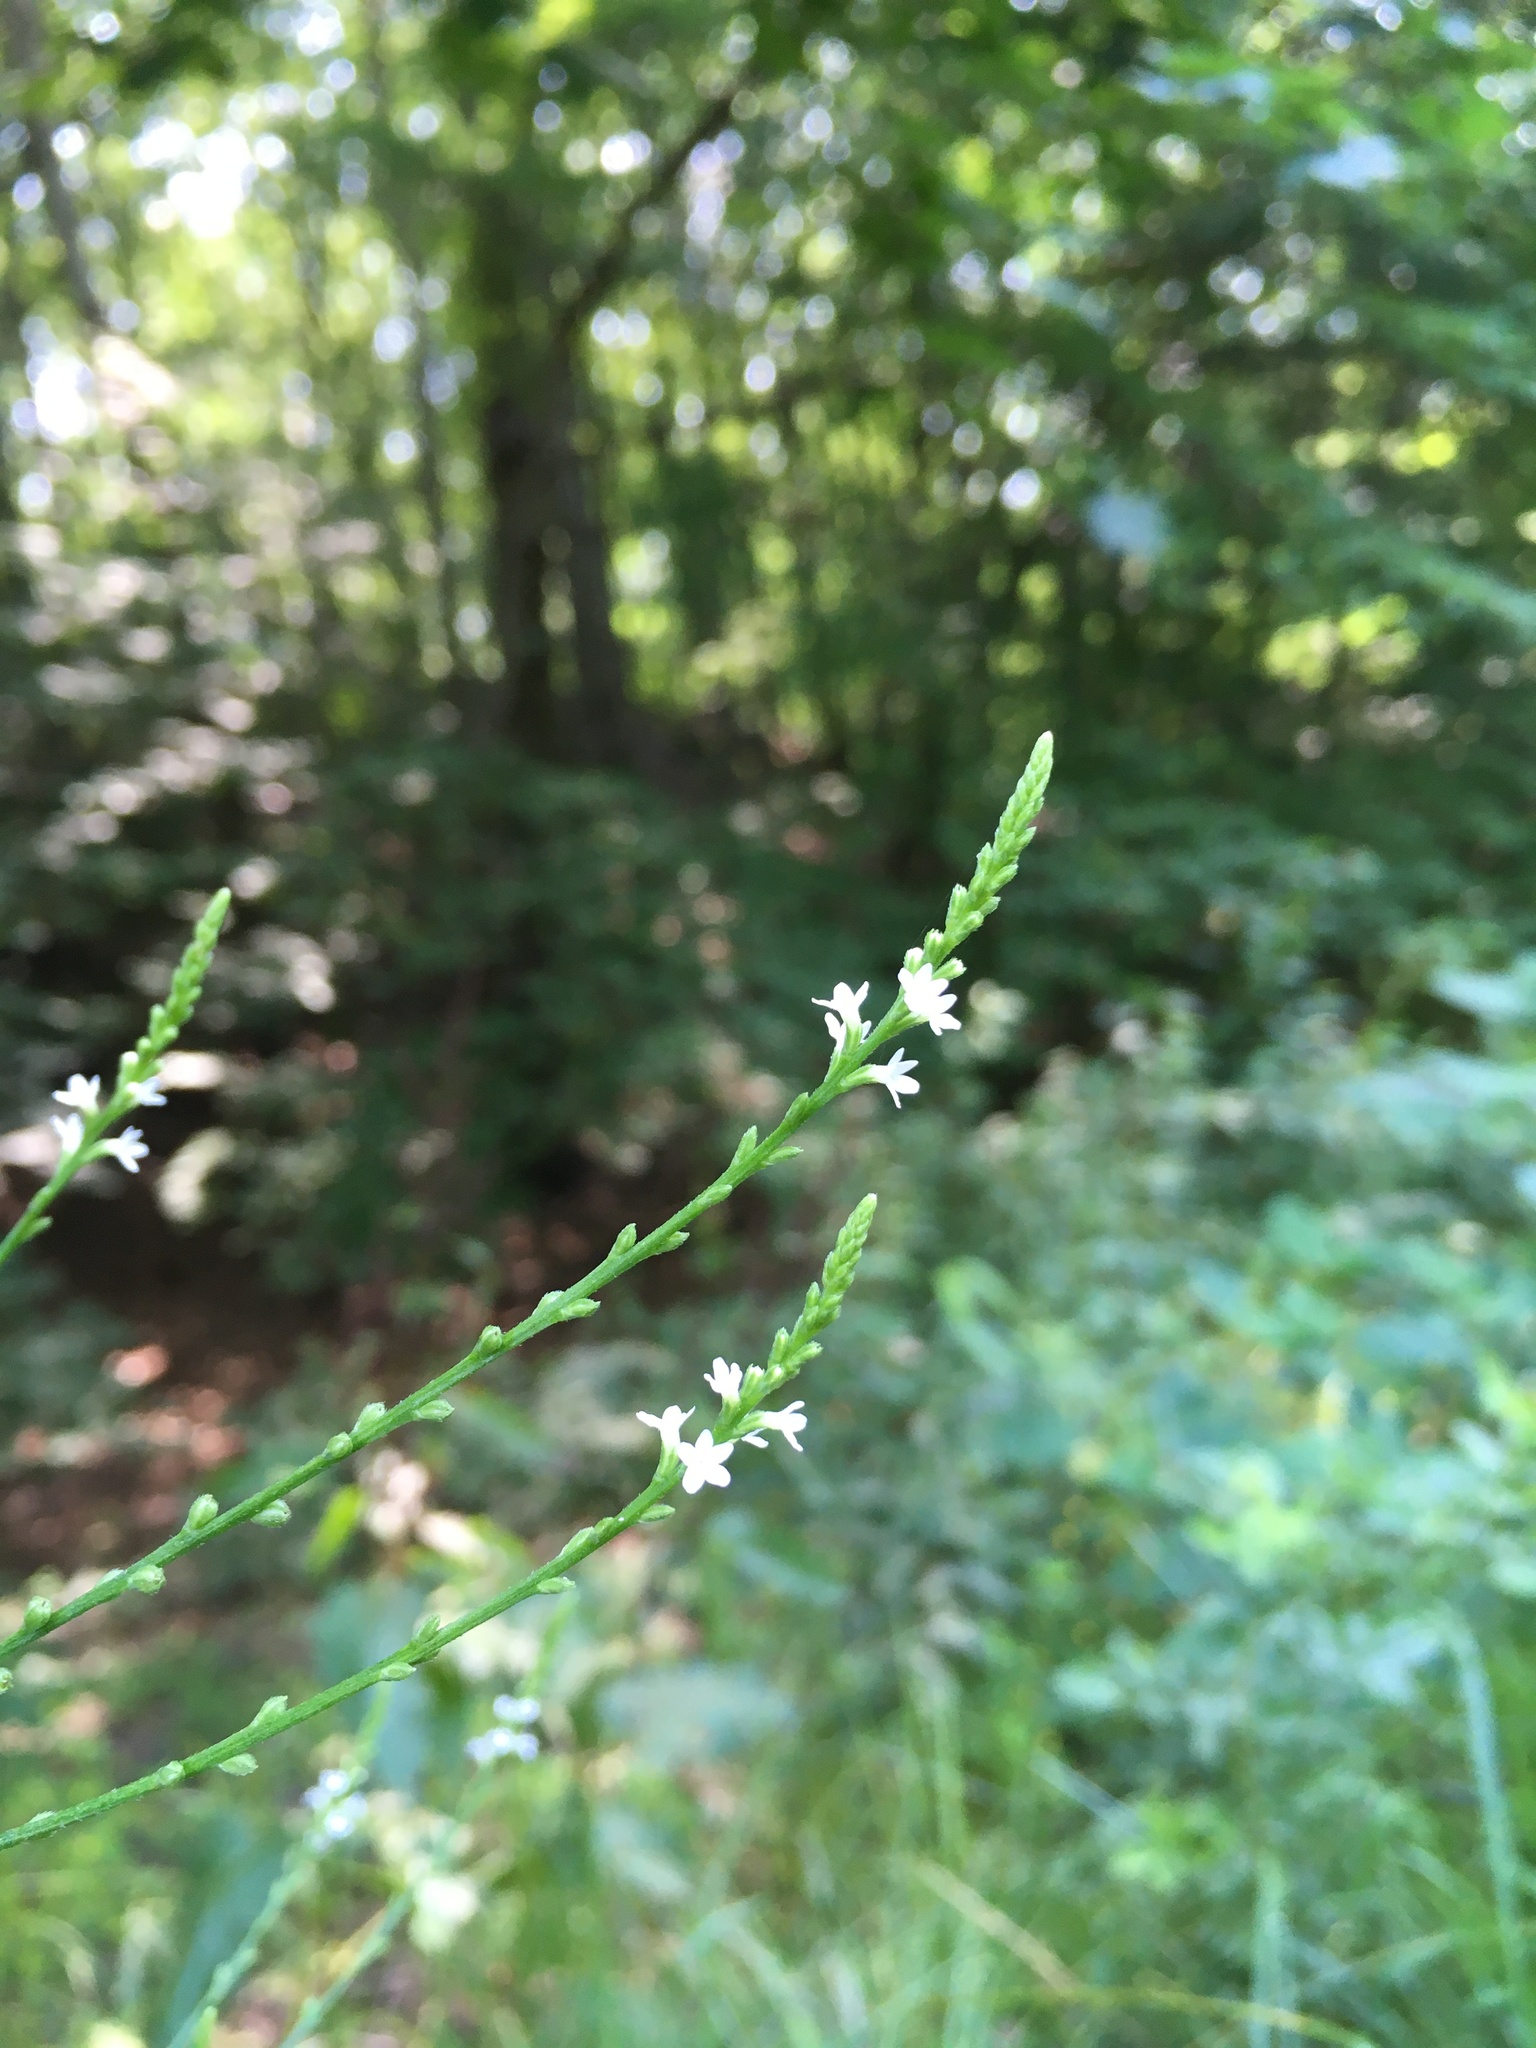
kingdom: Plantae
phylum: Tracheophyta
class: Magnoliopsida
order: Lamiales
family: Verbenaceae
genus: Verbena
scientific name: Verbena urticifolia
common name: Nettle-leaved vervain
